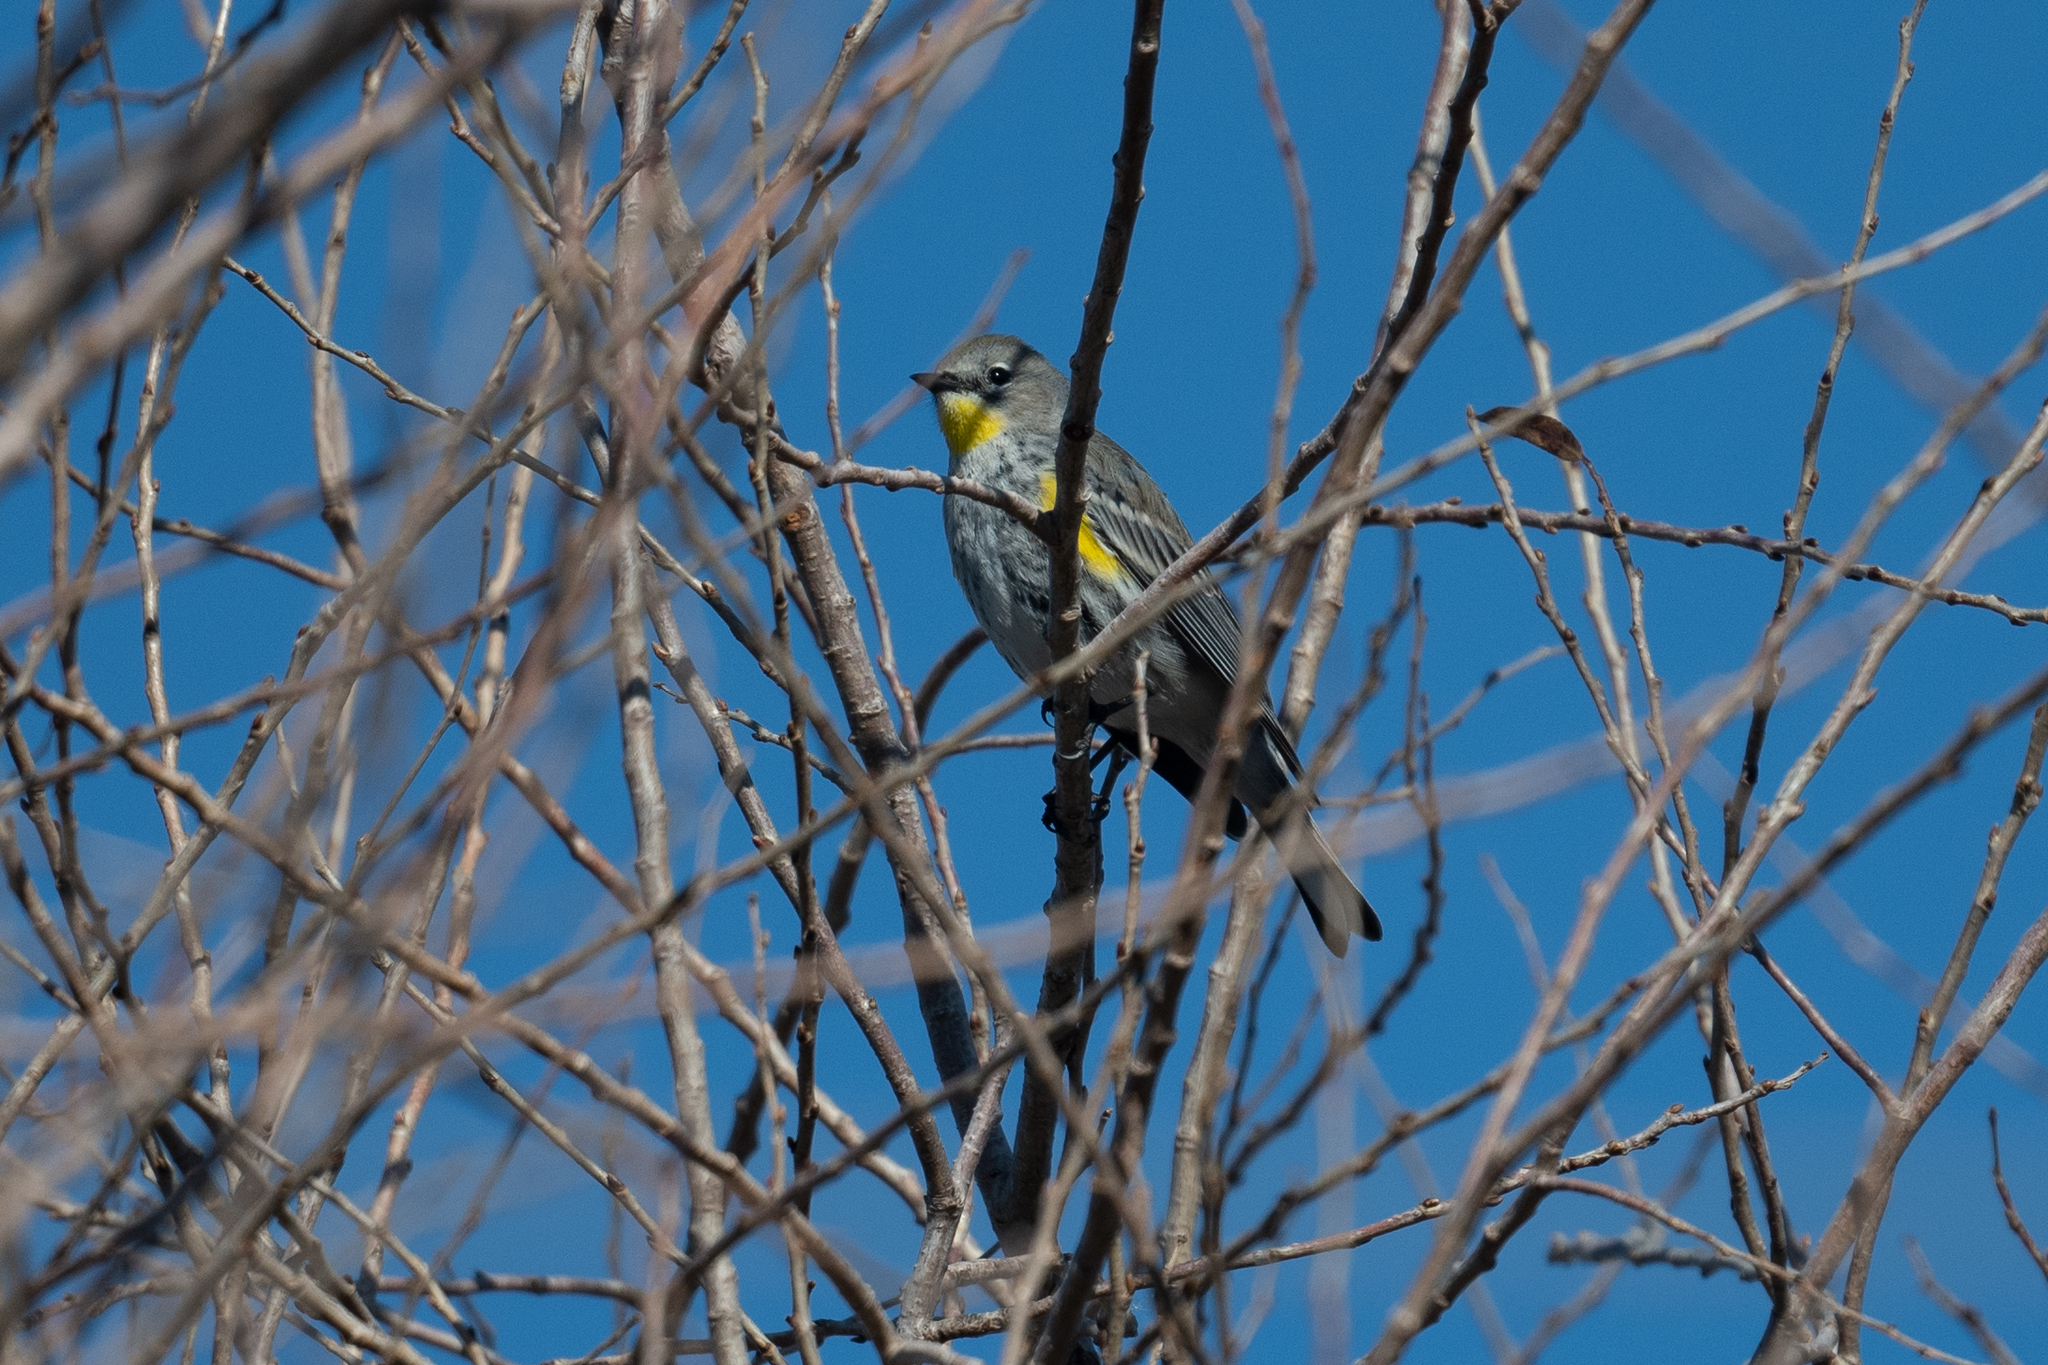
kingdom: Animalia
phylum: Chordata
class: Aves
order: Passeriformes
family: Parulidae
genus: Setophaga
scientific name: Setophaga coronata
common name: Myrtle warbler
